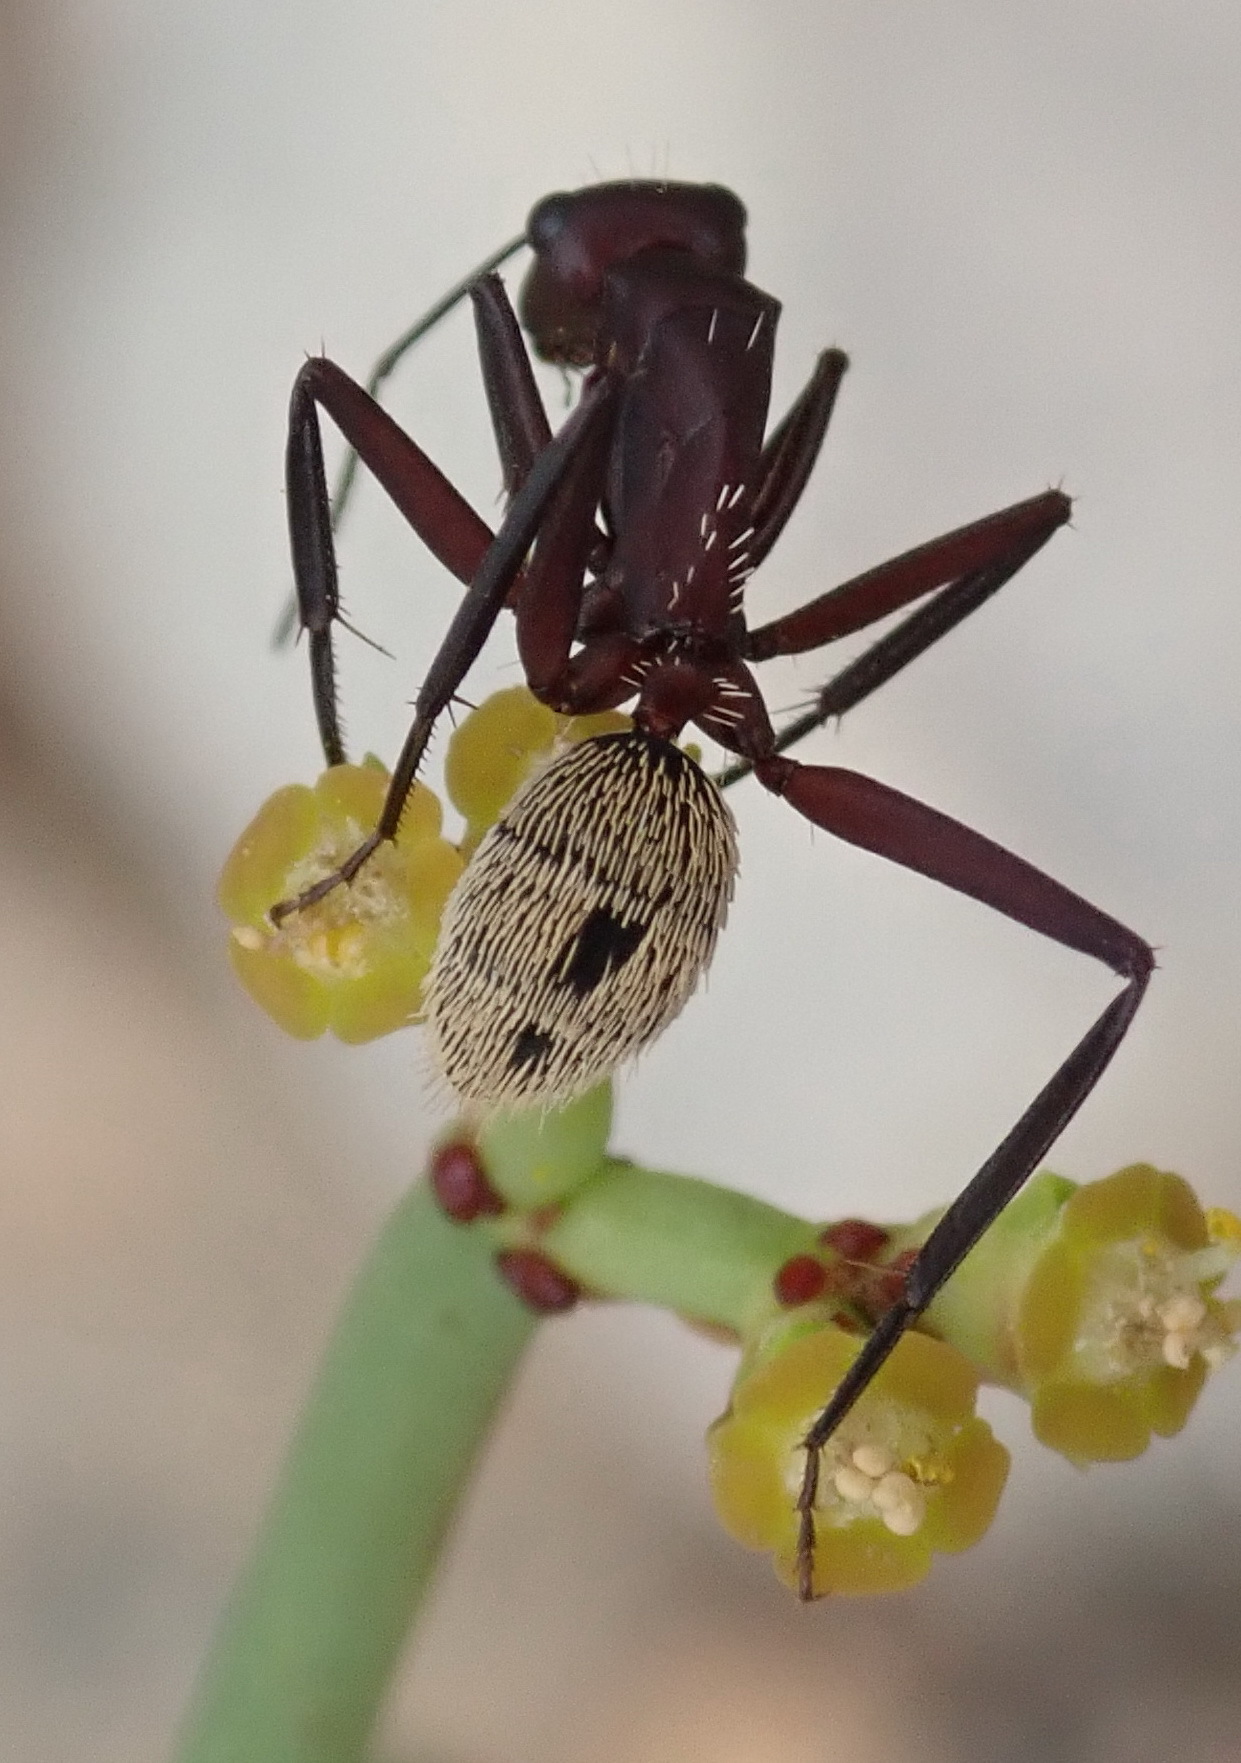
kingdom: Animalia
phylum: Arthropoda
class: Insecta
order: Hymenoptera
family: Formicidae
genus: Camponotus
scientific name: Camponotus storeatus
